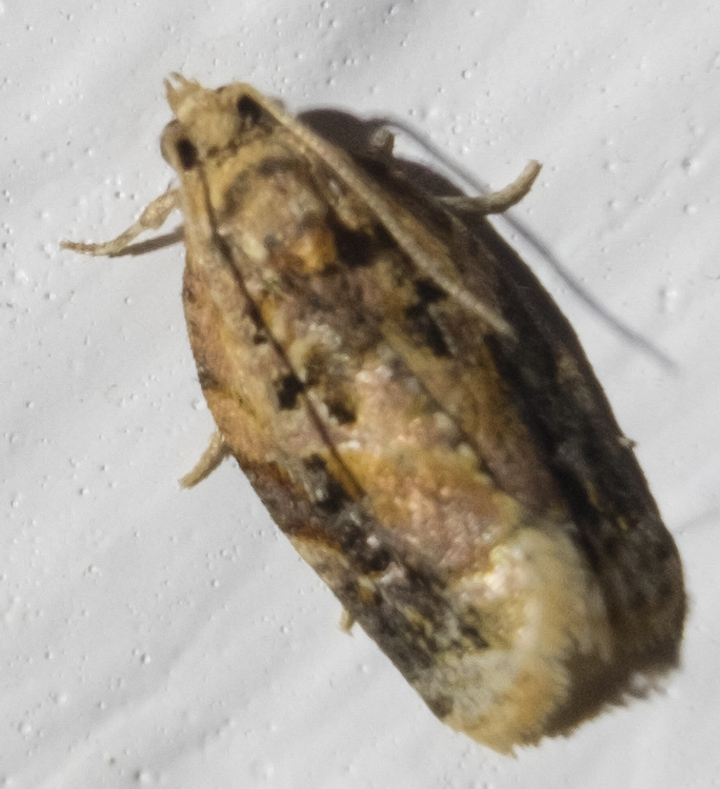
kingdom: Animalia
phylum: Arthropoda
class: Insecta
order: Lepidoptera
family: Tortricidae
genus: Argyrotaenia
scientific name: Argyrotaenia velutinana
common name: Red-banded leafroller moth
